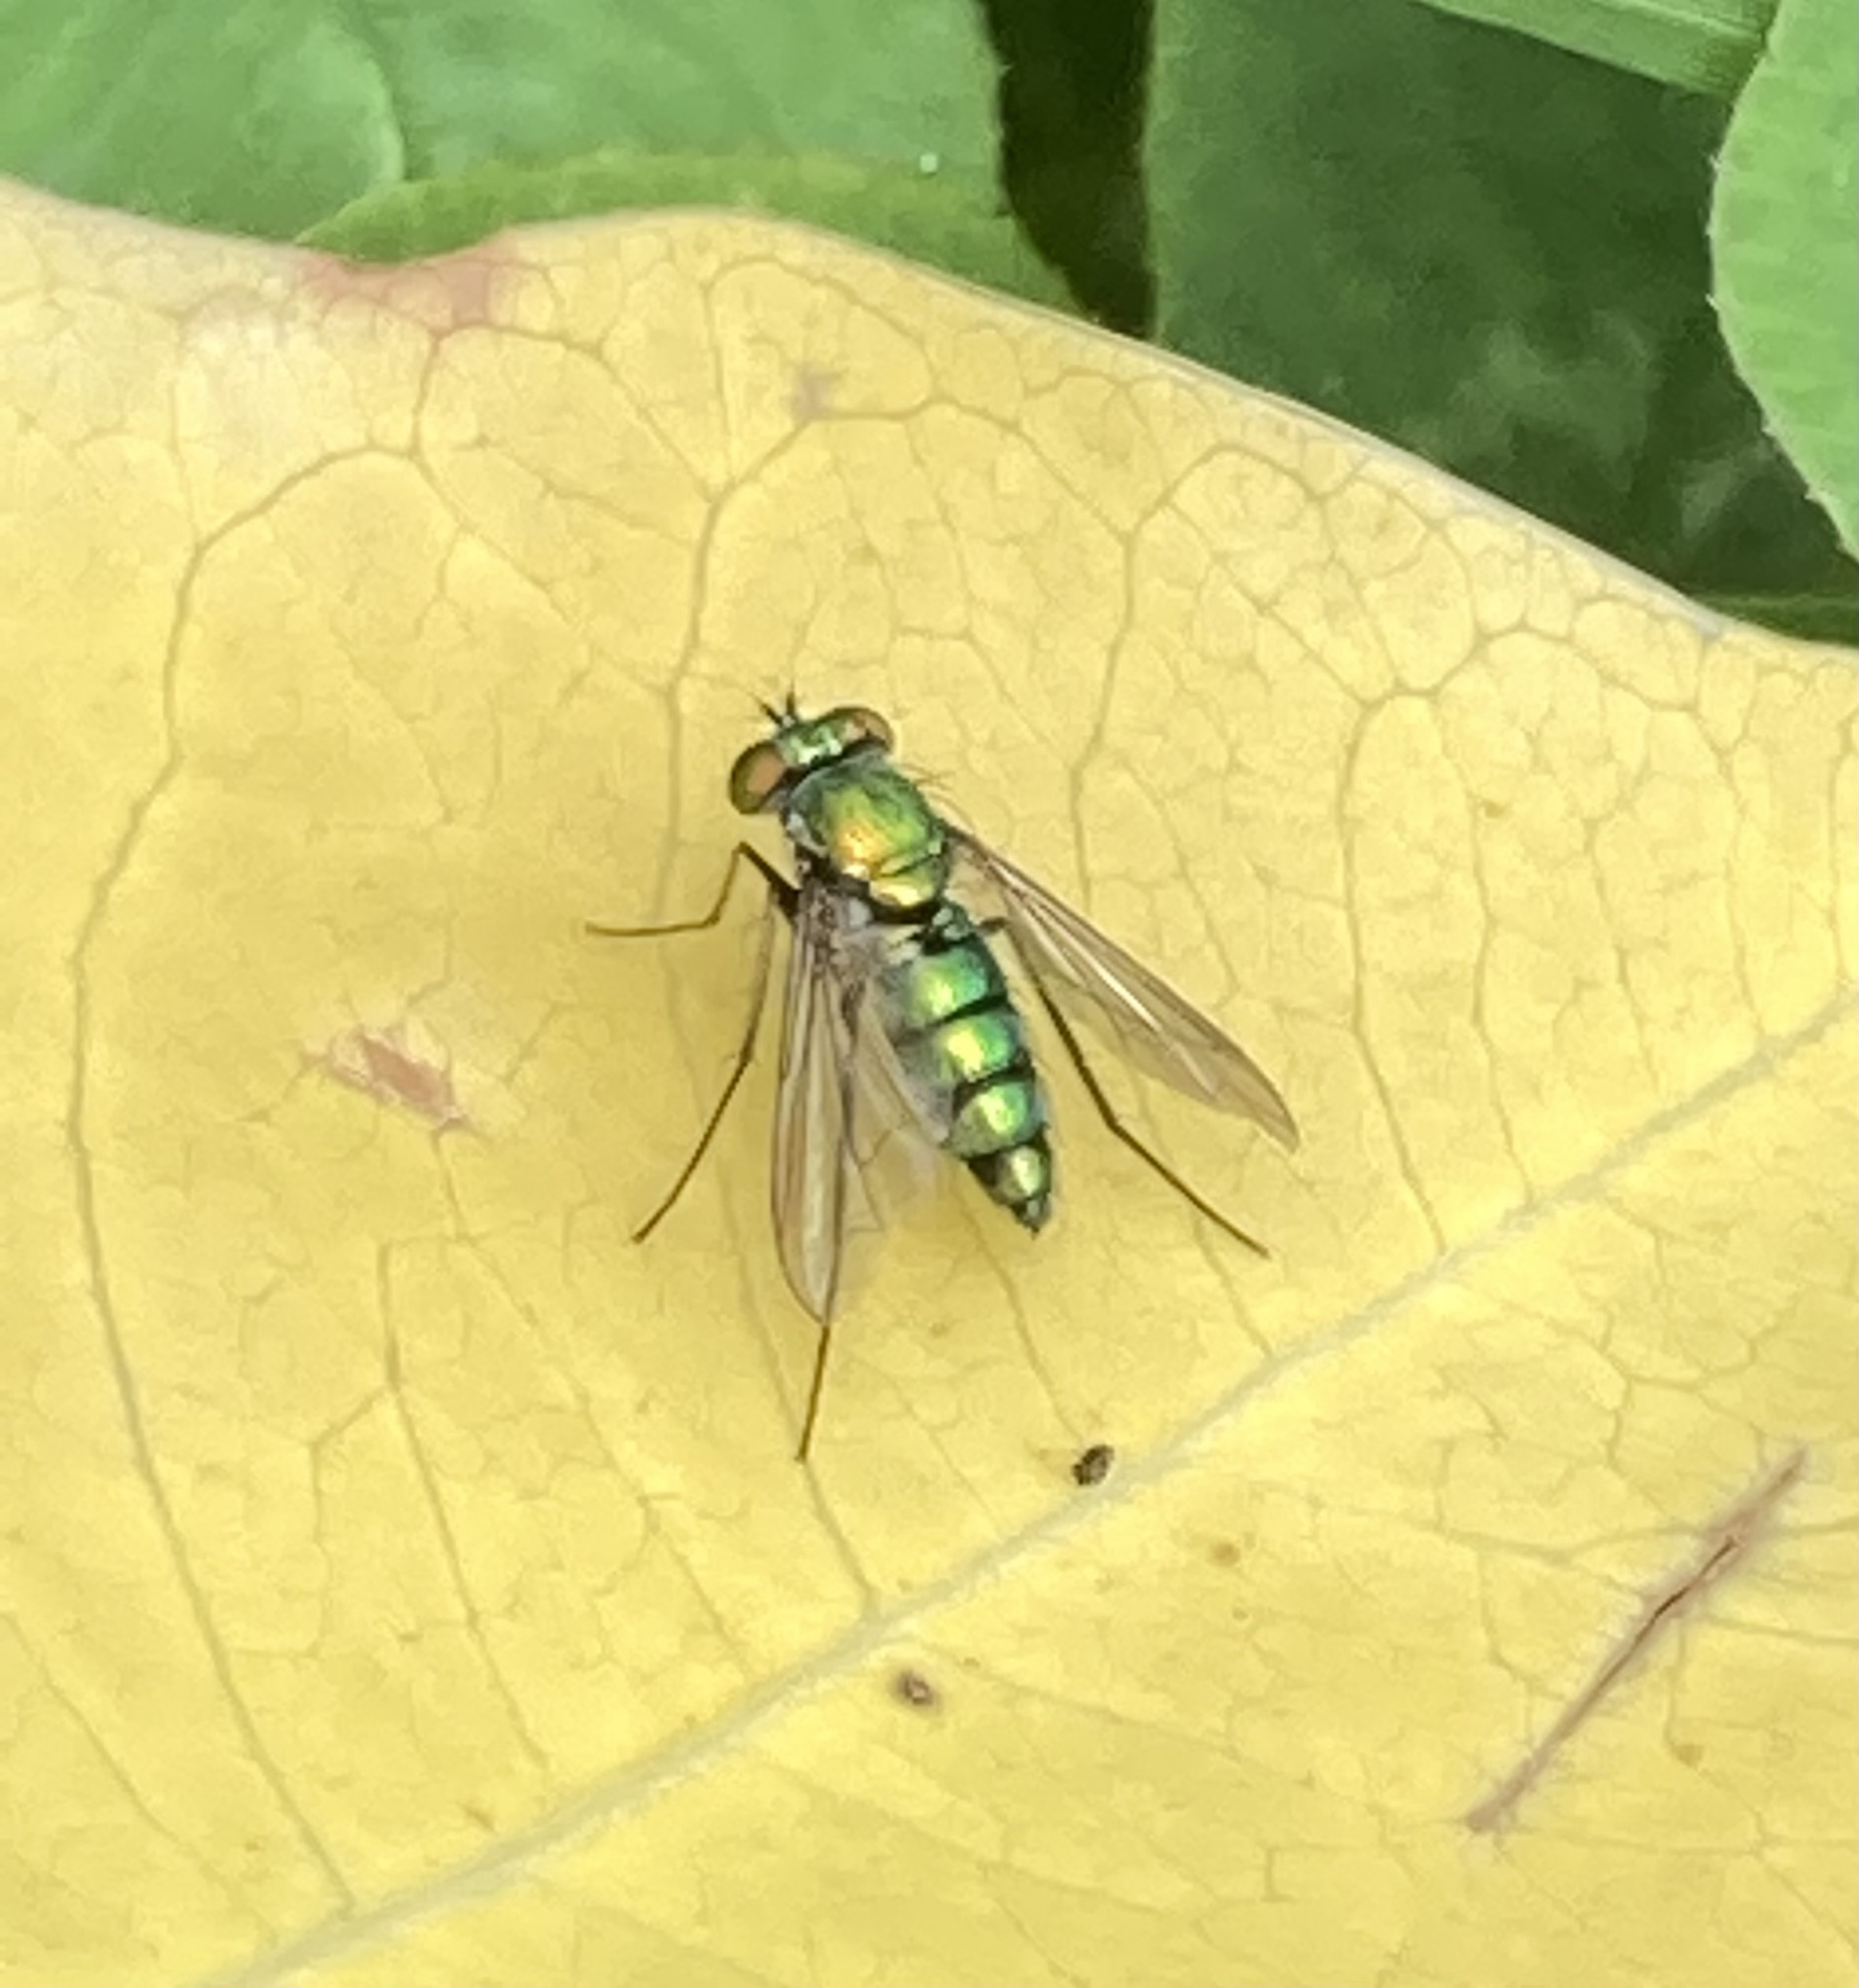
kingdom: Animalia
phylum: Arthropoda
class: Insecta
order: Diptera
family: Dolichopodidae
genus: Condylostylus
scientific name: Condylostylus longicornis
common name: Long-legged fly
